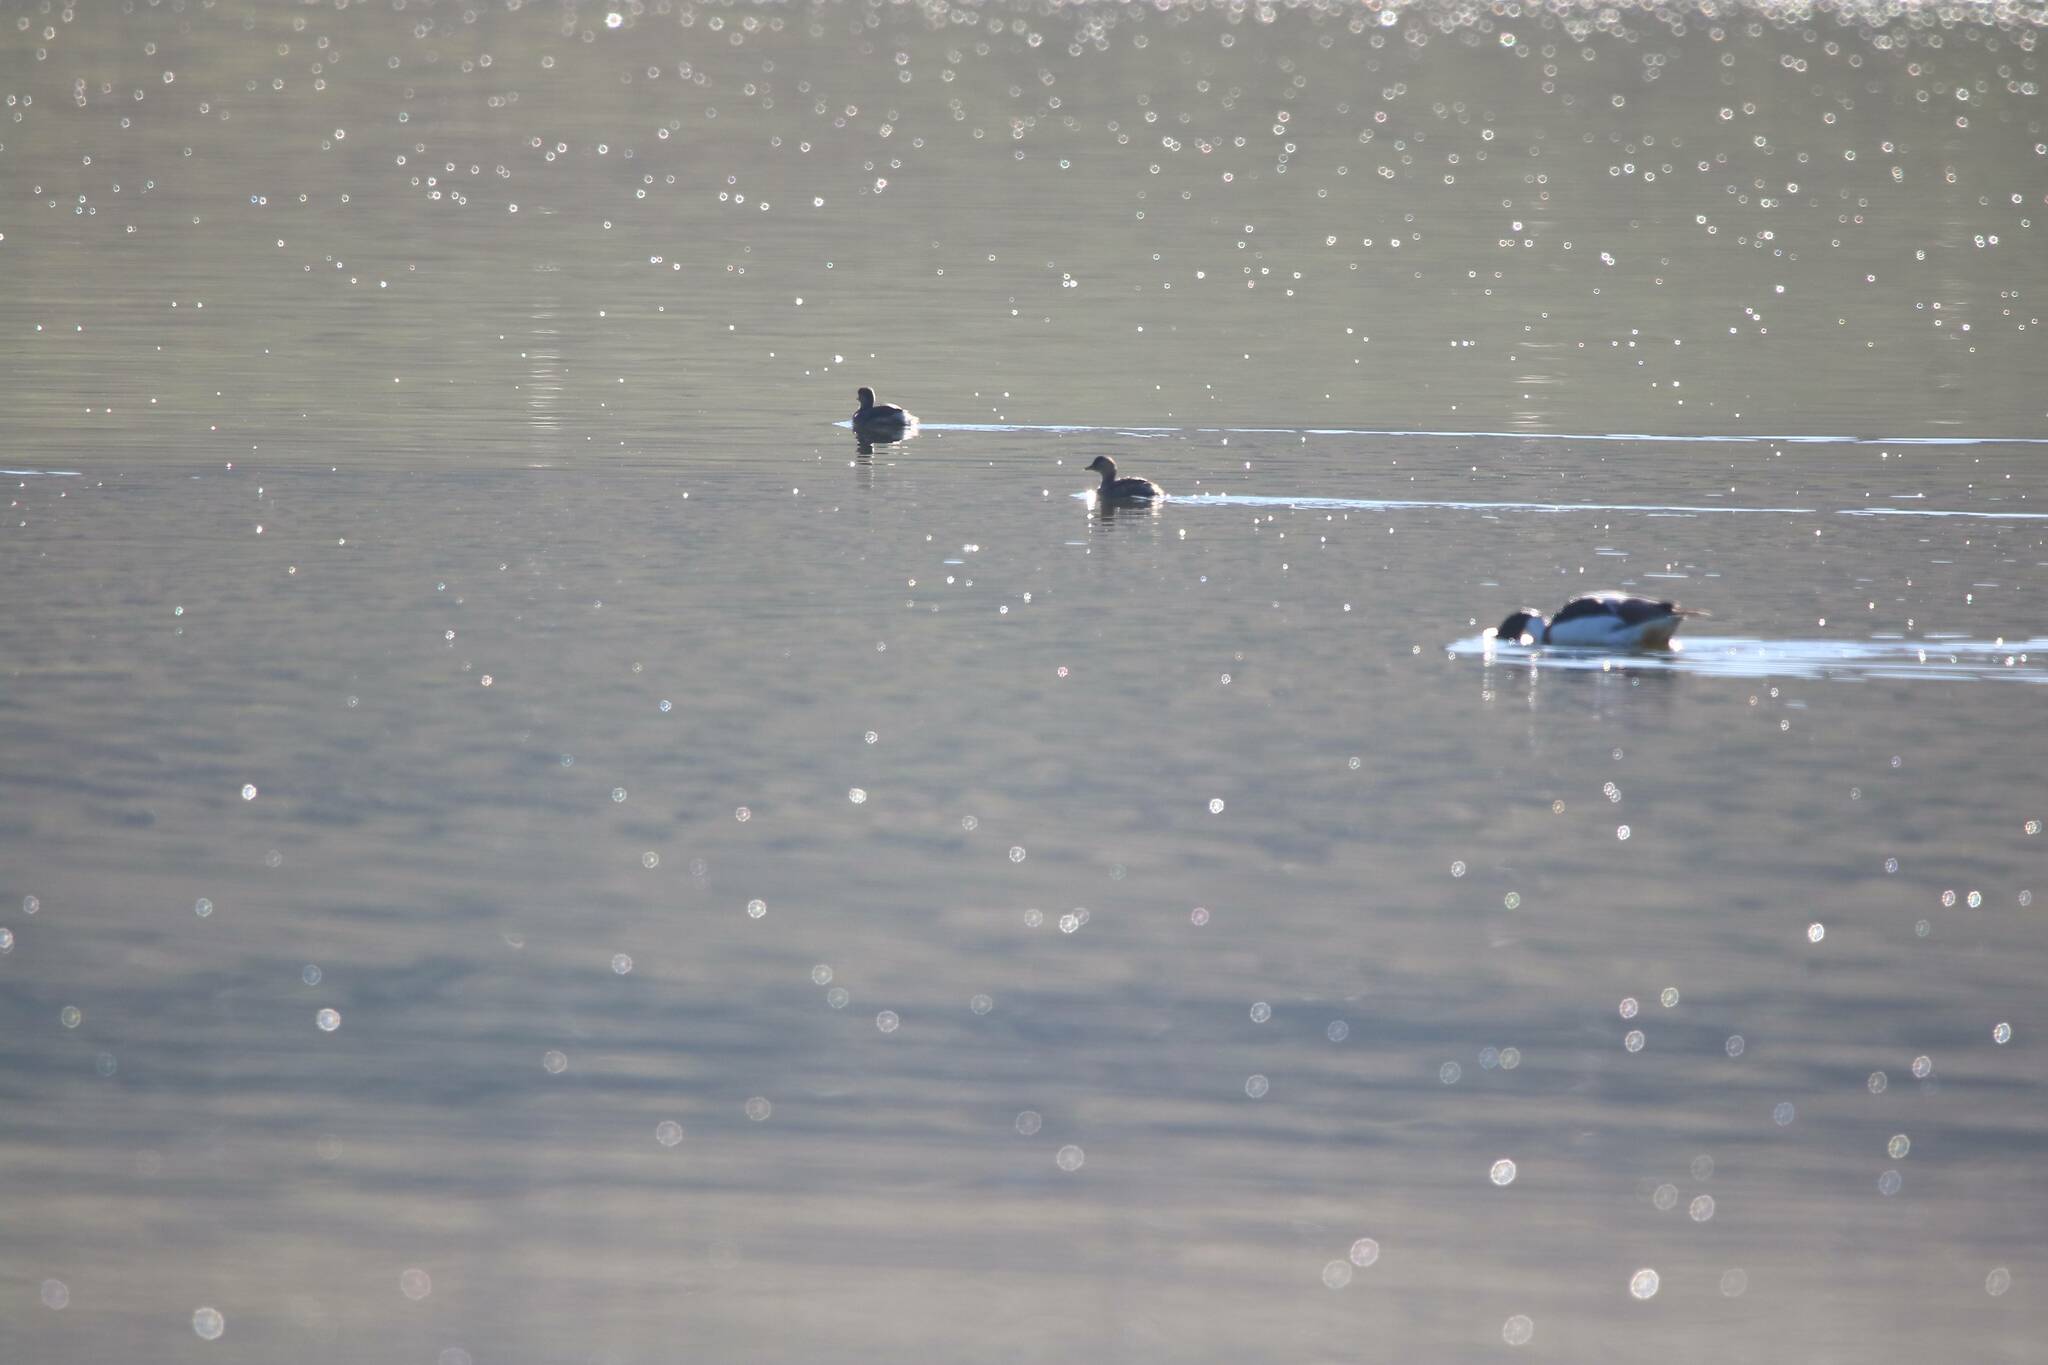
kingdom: Animalia
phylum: Chordata
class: Aves
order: Anseriformes
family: Anatidae
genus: Tadorna
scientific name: Tadorna tadorna
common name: Common shelduck
